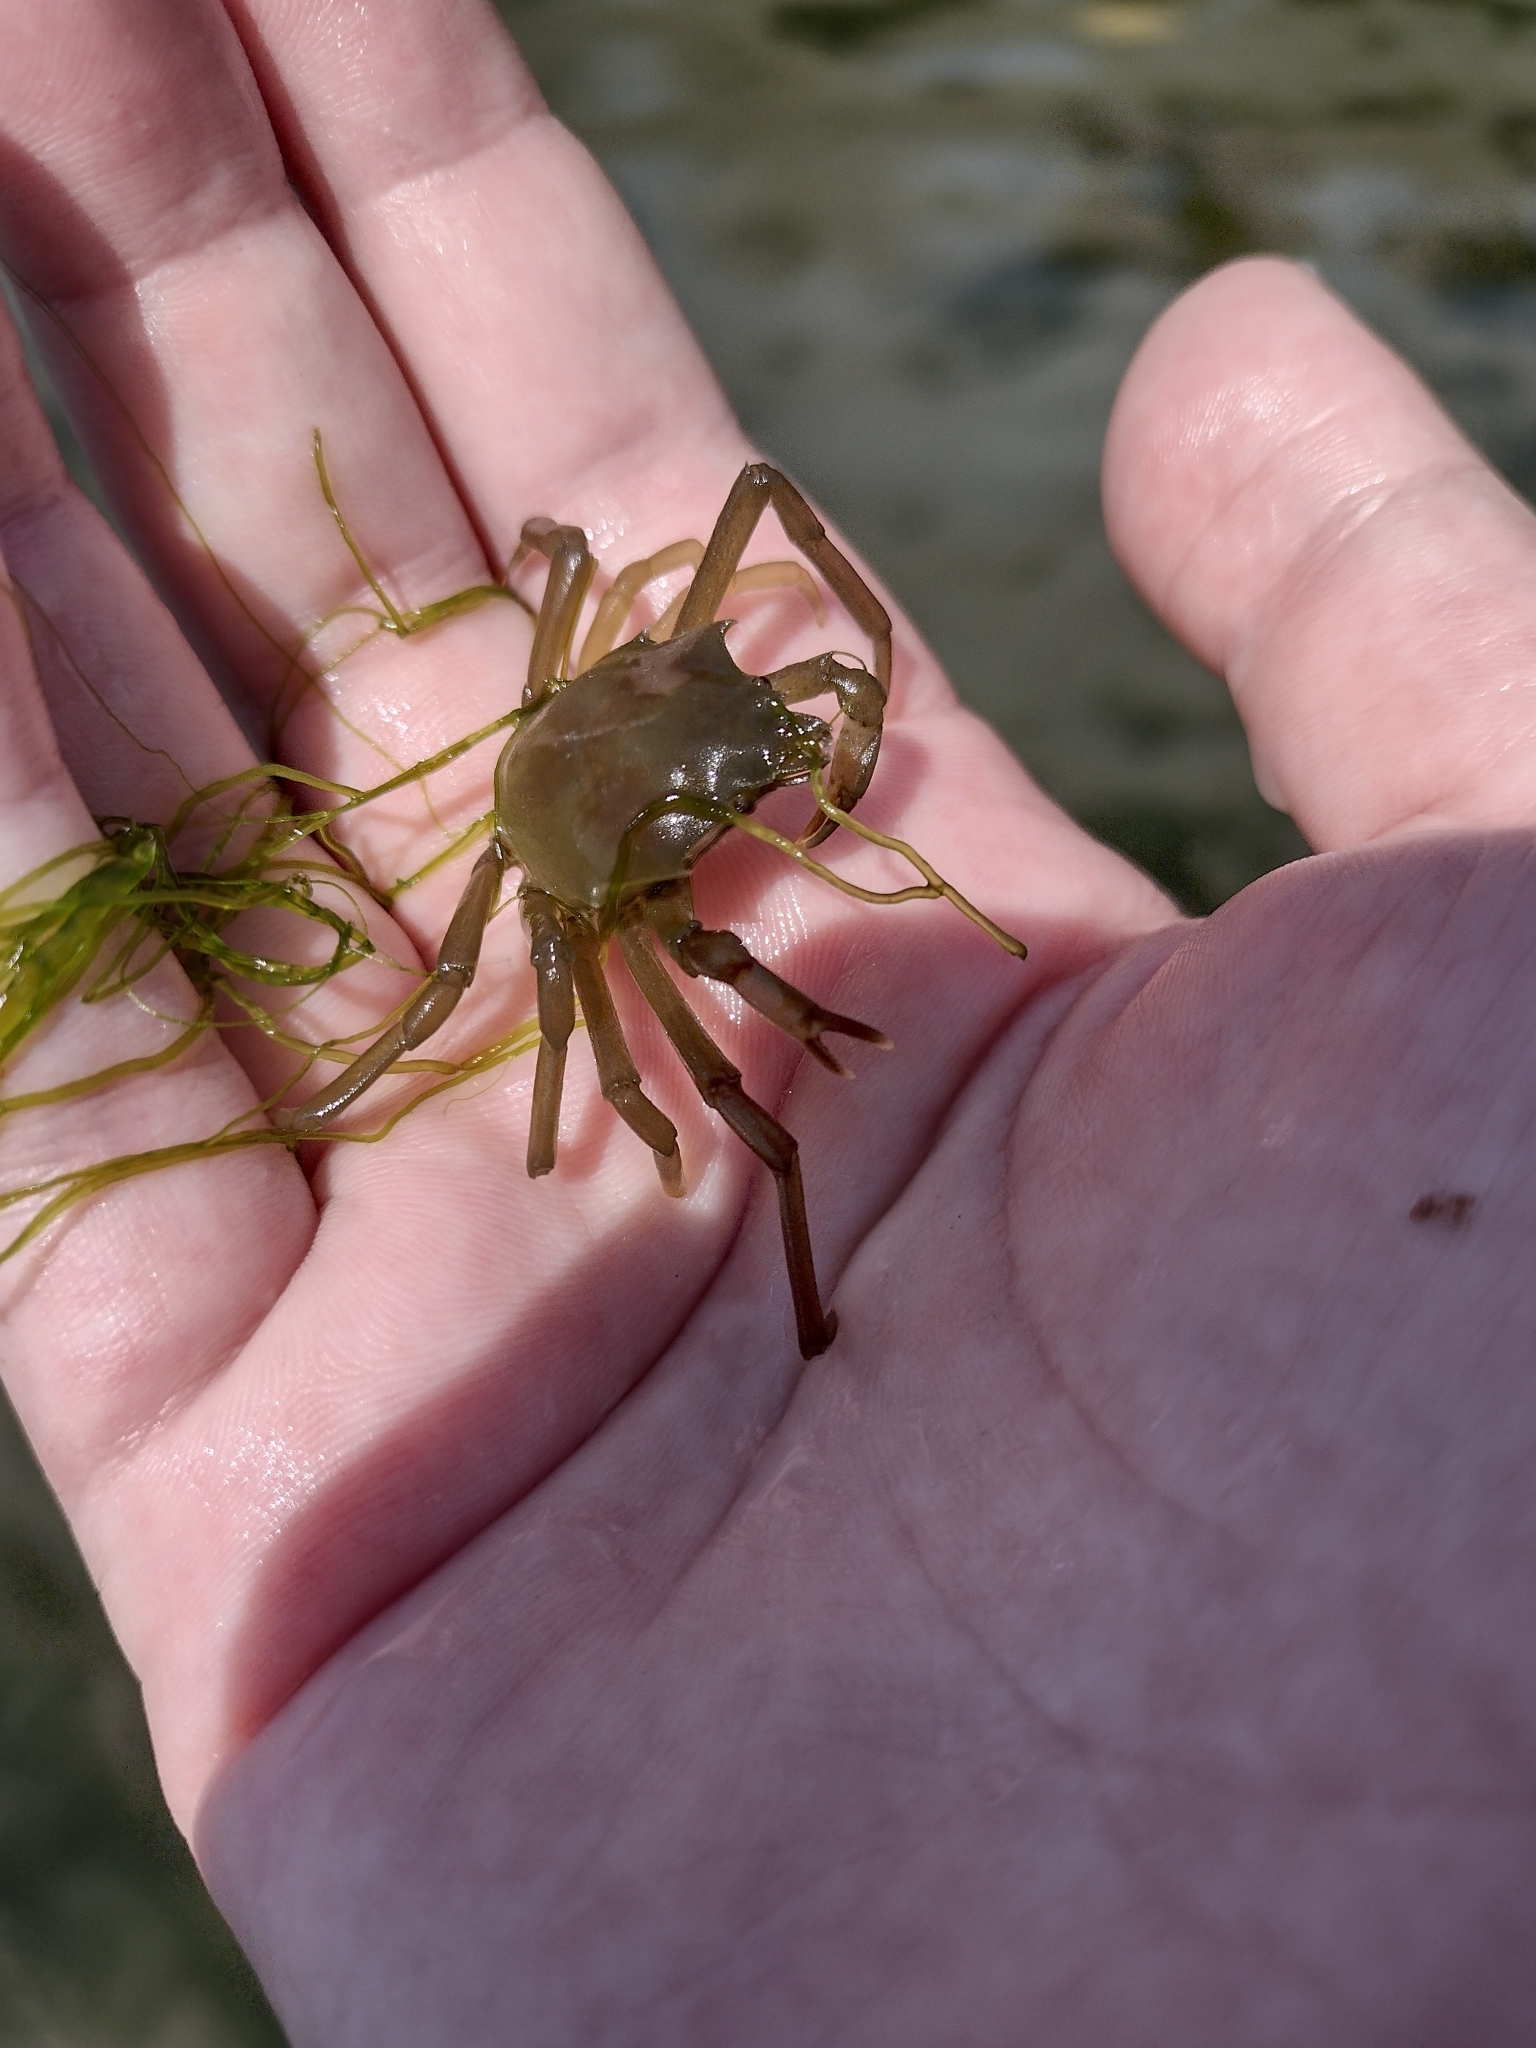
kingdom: Animalia
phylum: Arthropoda
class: Malacostraca
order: Decapoda
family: Epialtidae
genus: Pugettia
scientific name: Pugettia producta
